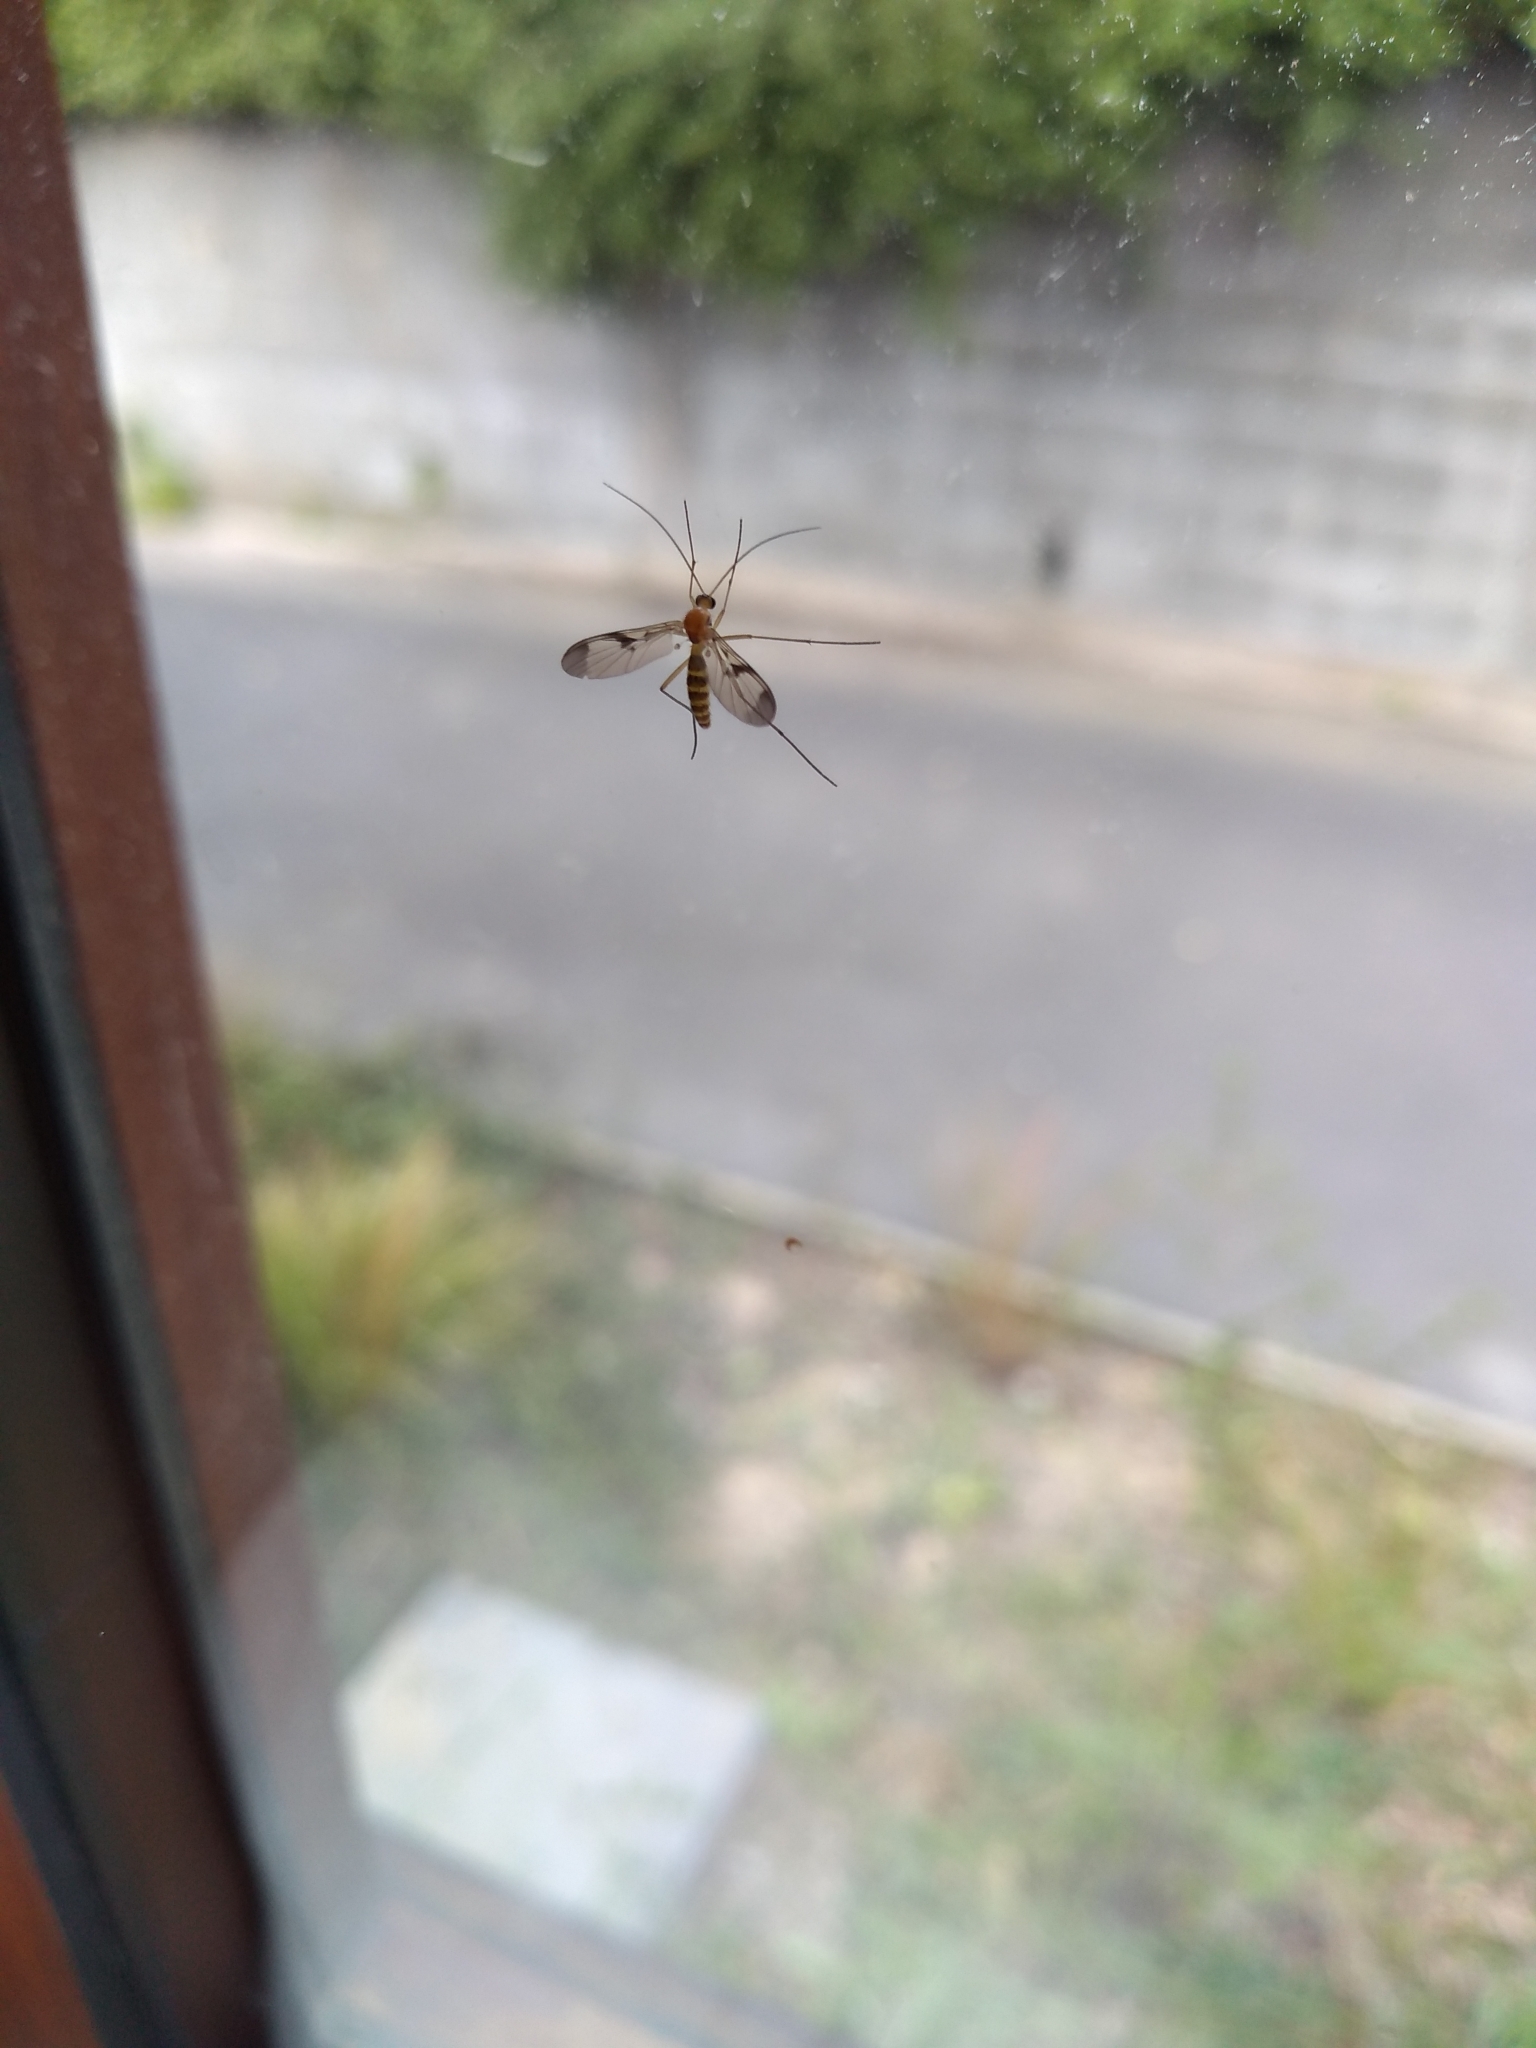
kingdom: Animalia
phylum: Arthropoda
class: Insecta
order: Diptera
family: Keroplatidae
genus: Macrocera
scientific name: Macrocera scoparia
